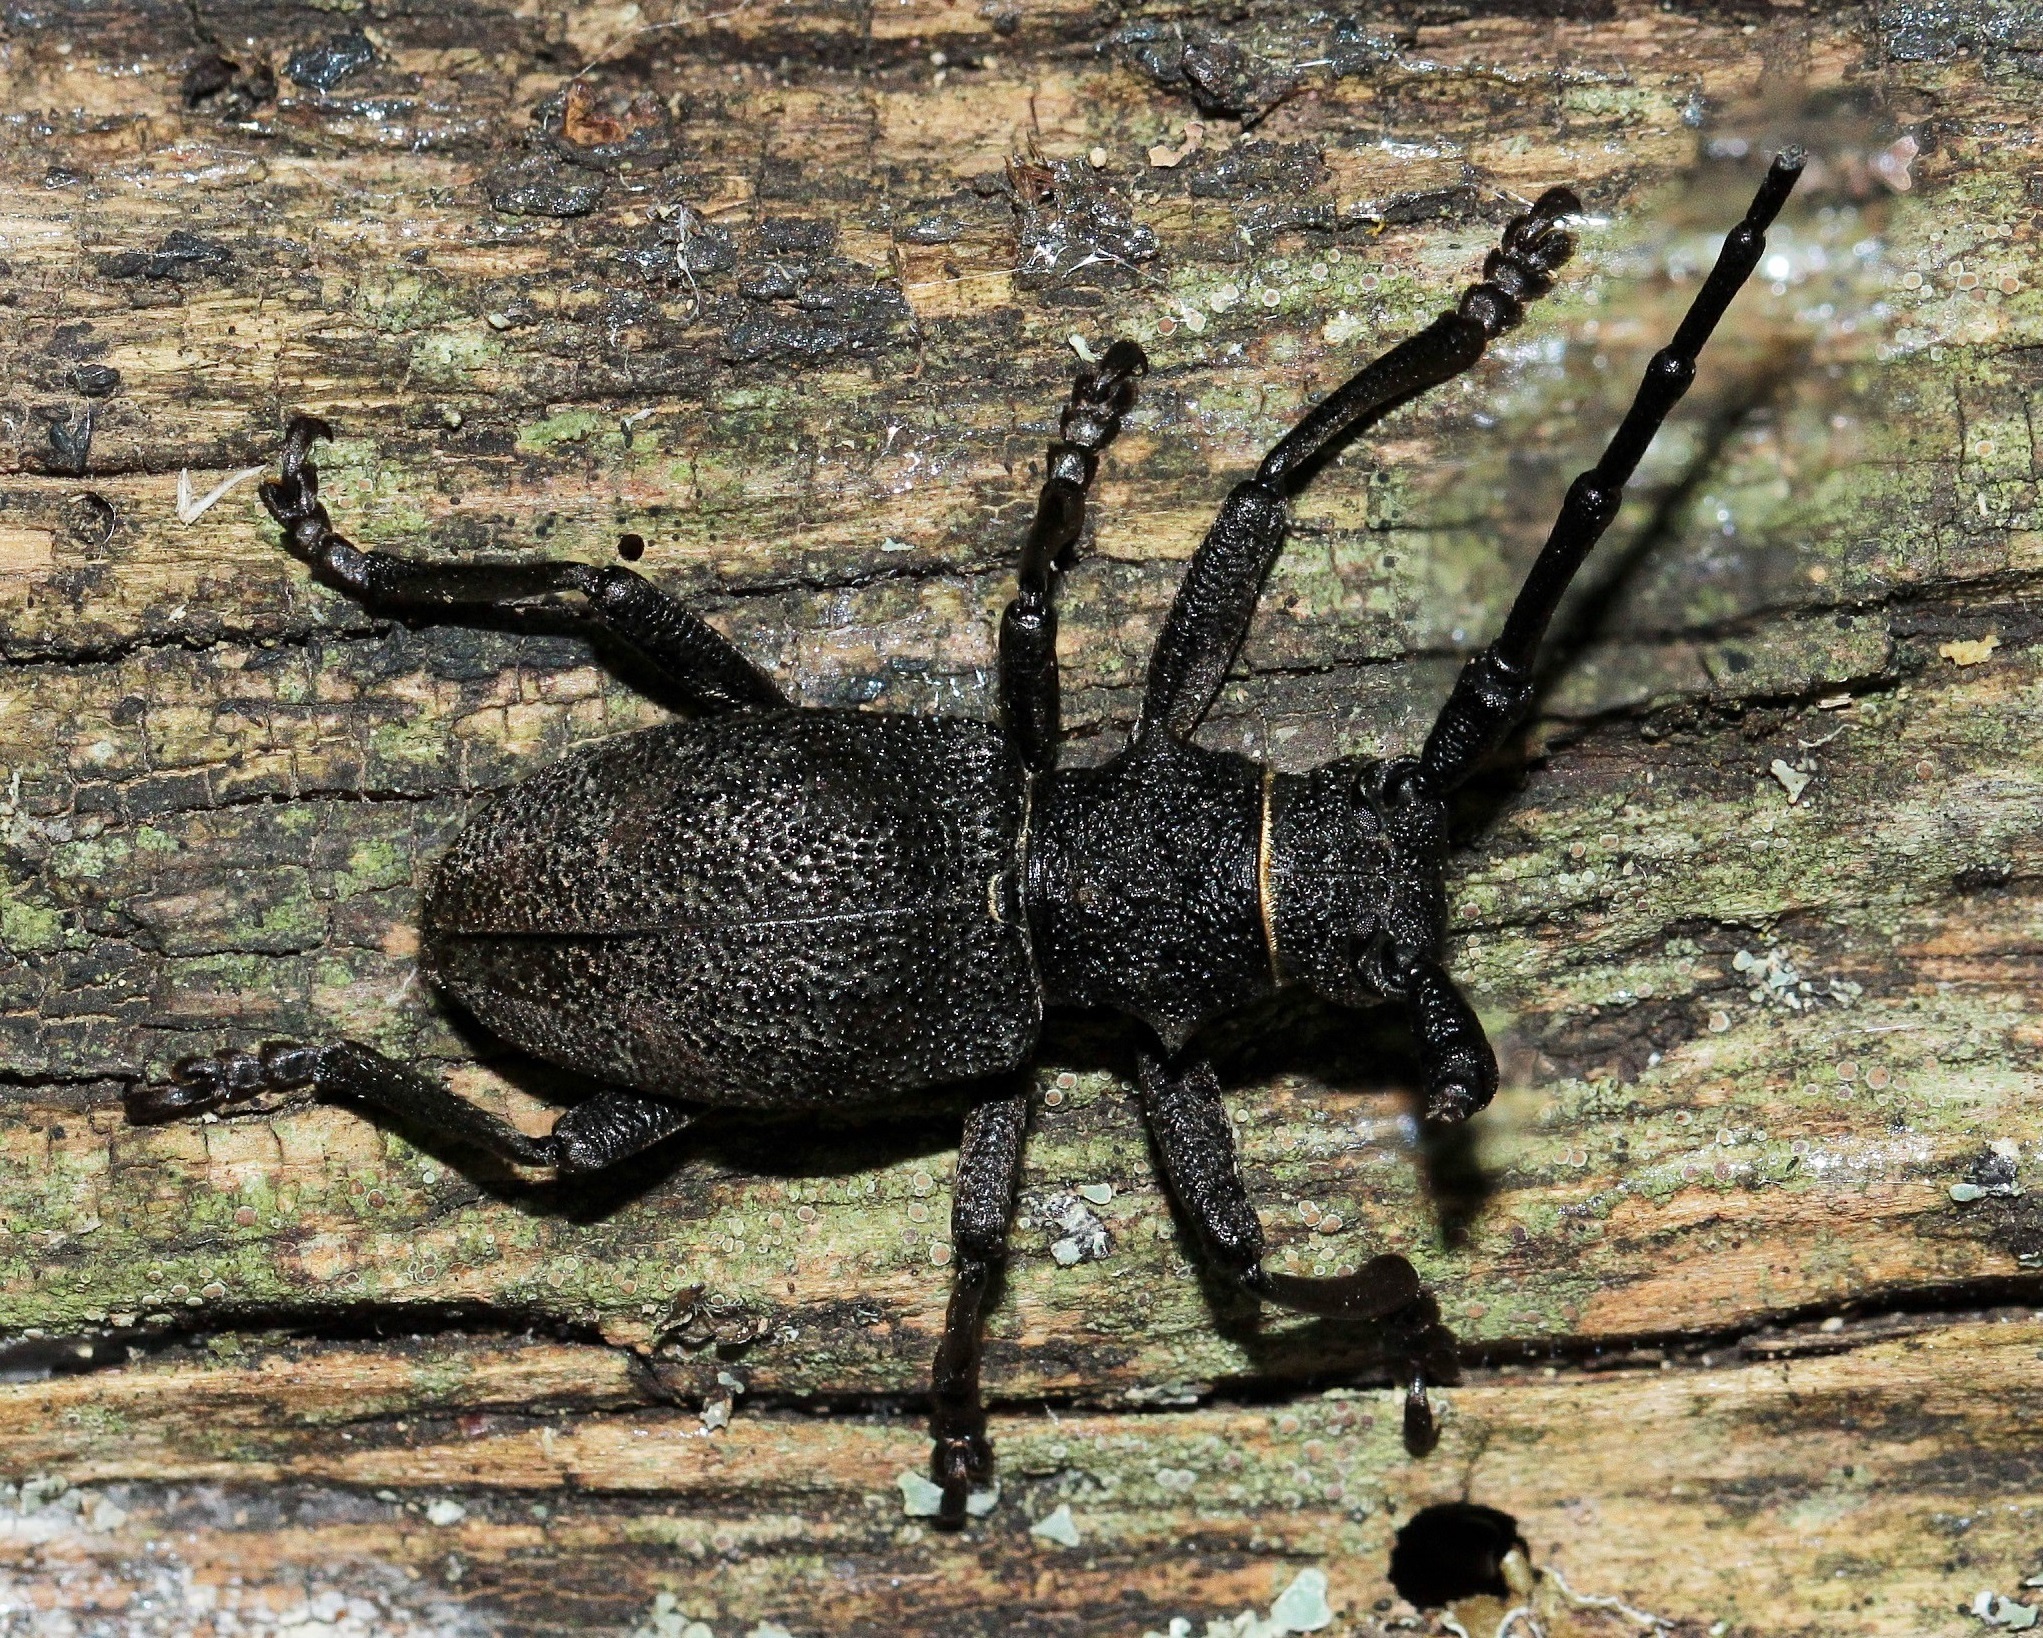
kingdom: Animalia
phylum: Arthropoda
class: Insecta
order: Coleoptera
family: Cerambycidae
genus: Morimus
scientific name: Morimus verecundus
